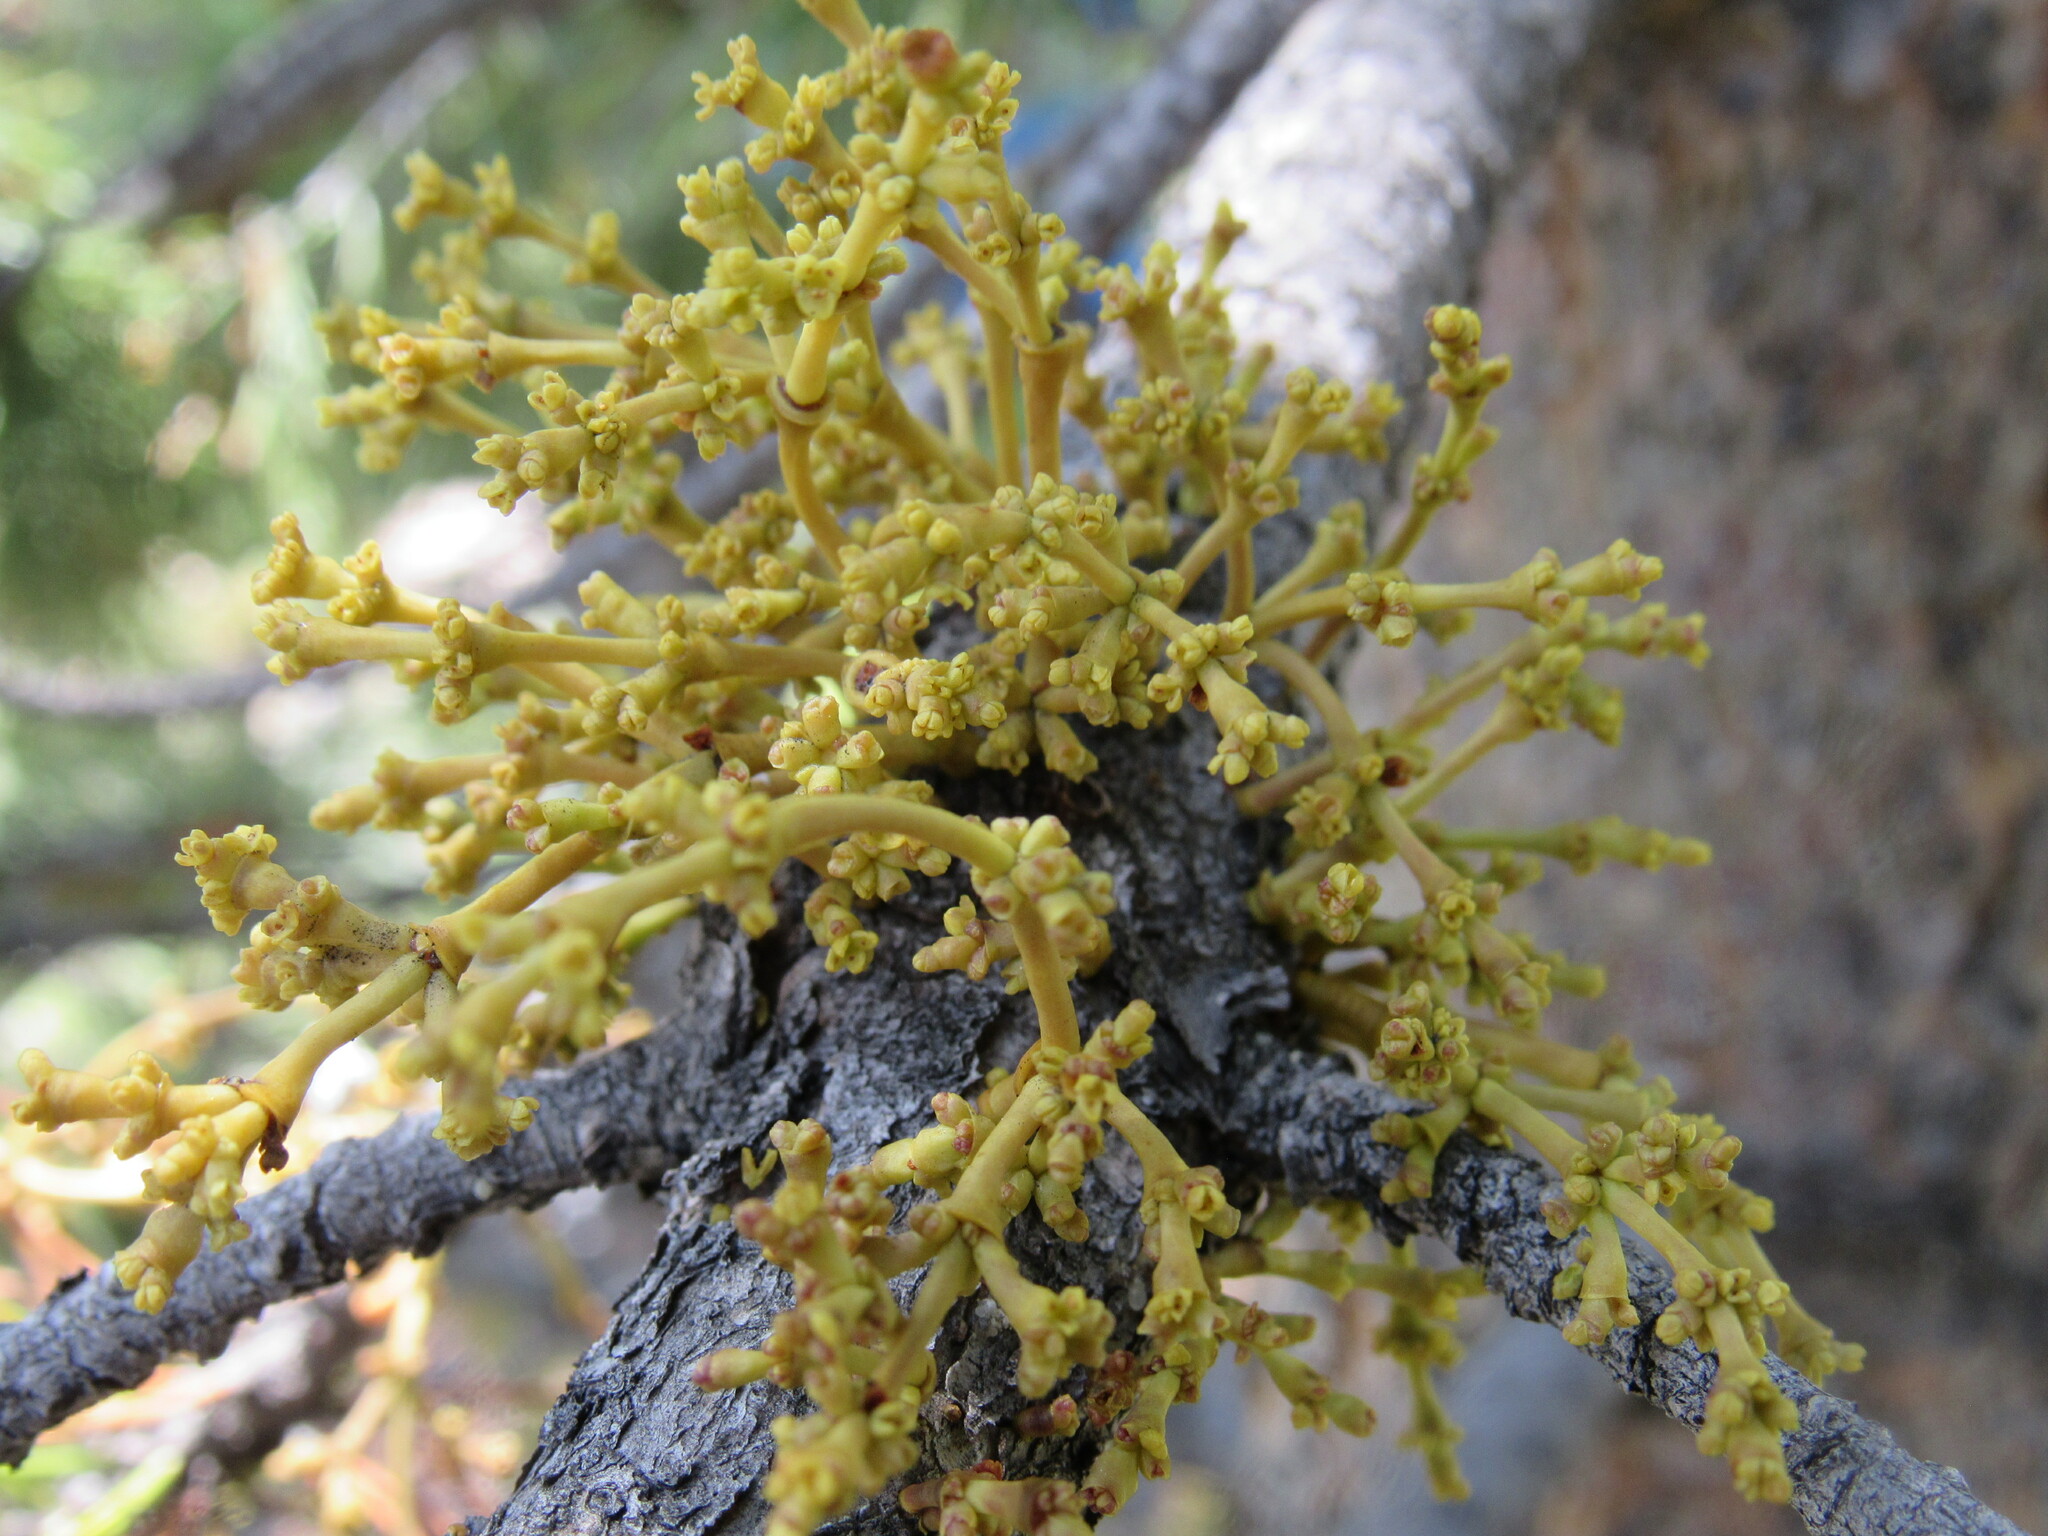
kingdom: Plantae
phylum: Tracheophyta
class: Magnoliopsida
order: Santalales
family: Viscaceae
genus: Arceuthobium
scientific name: Arceuthobium americanum
